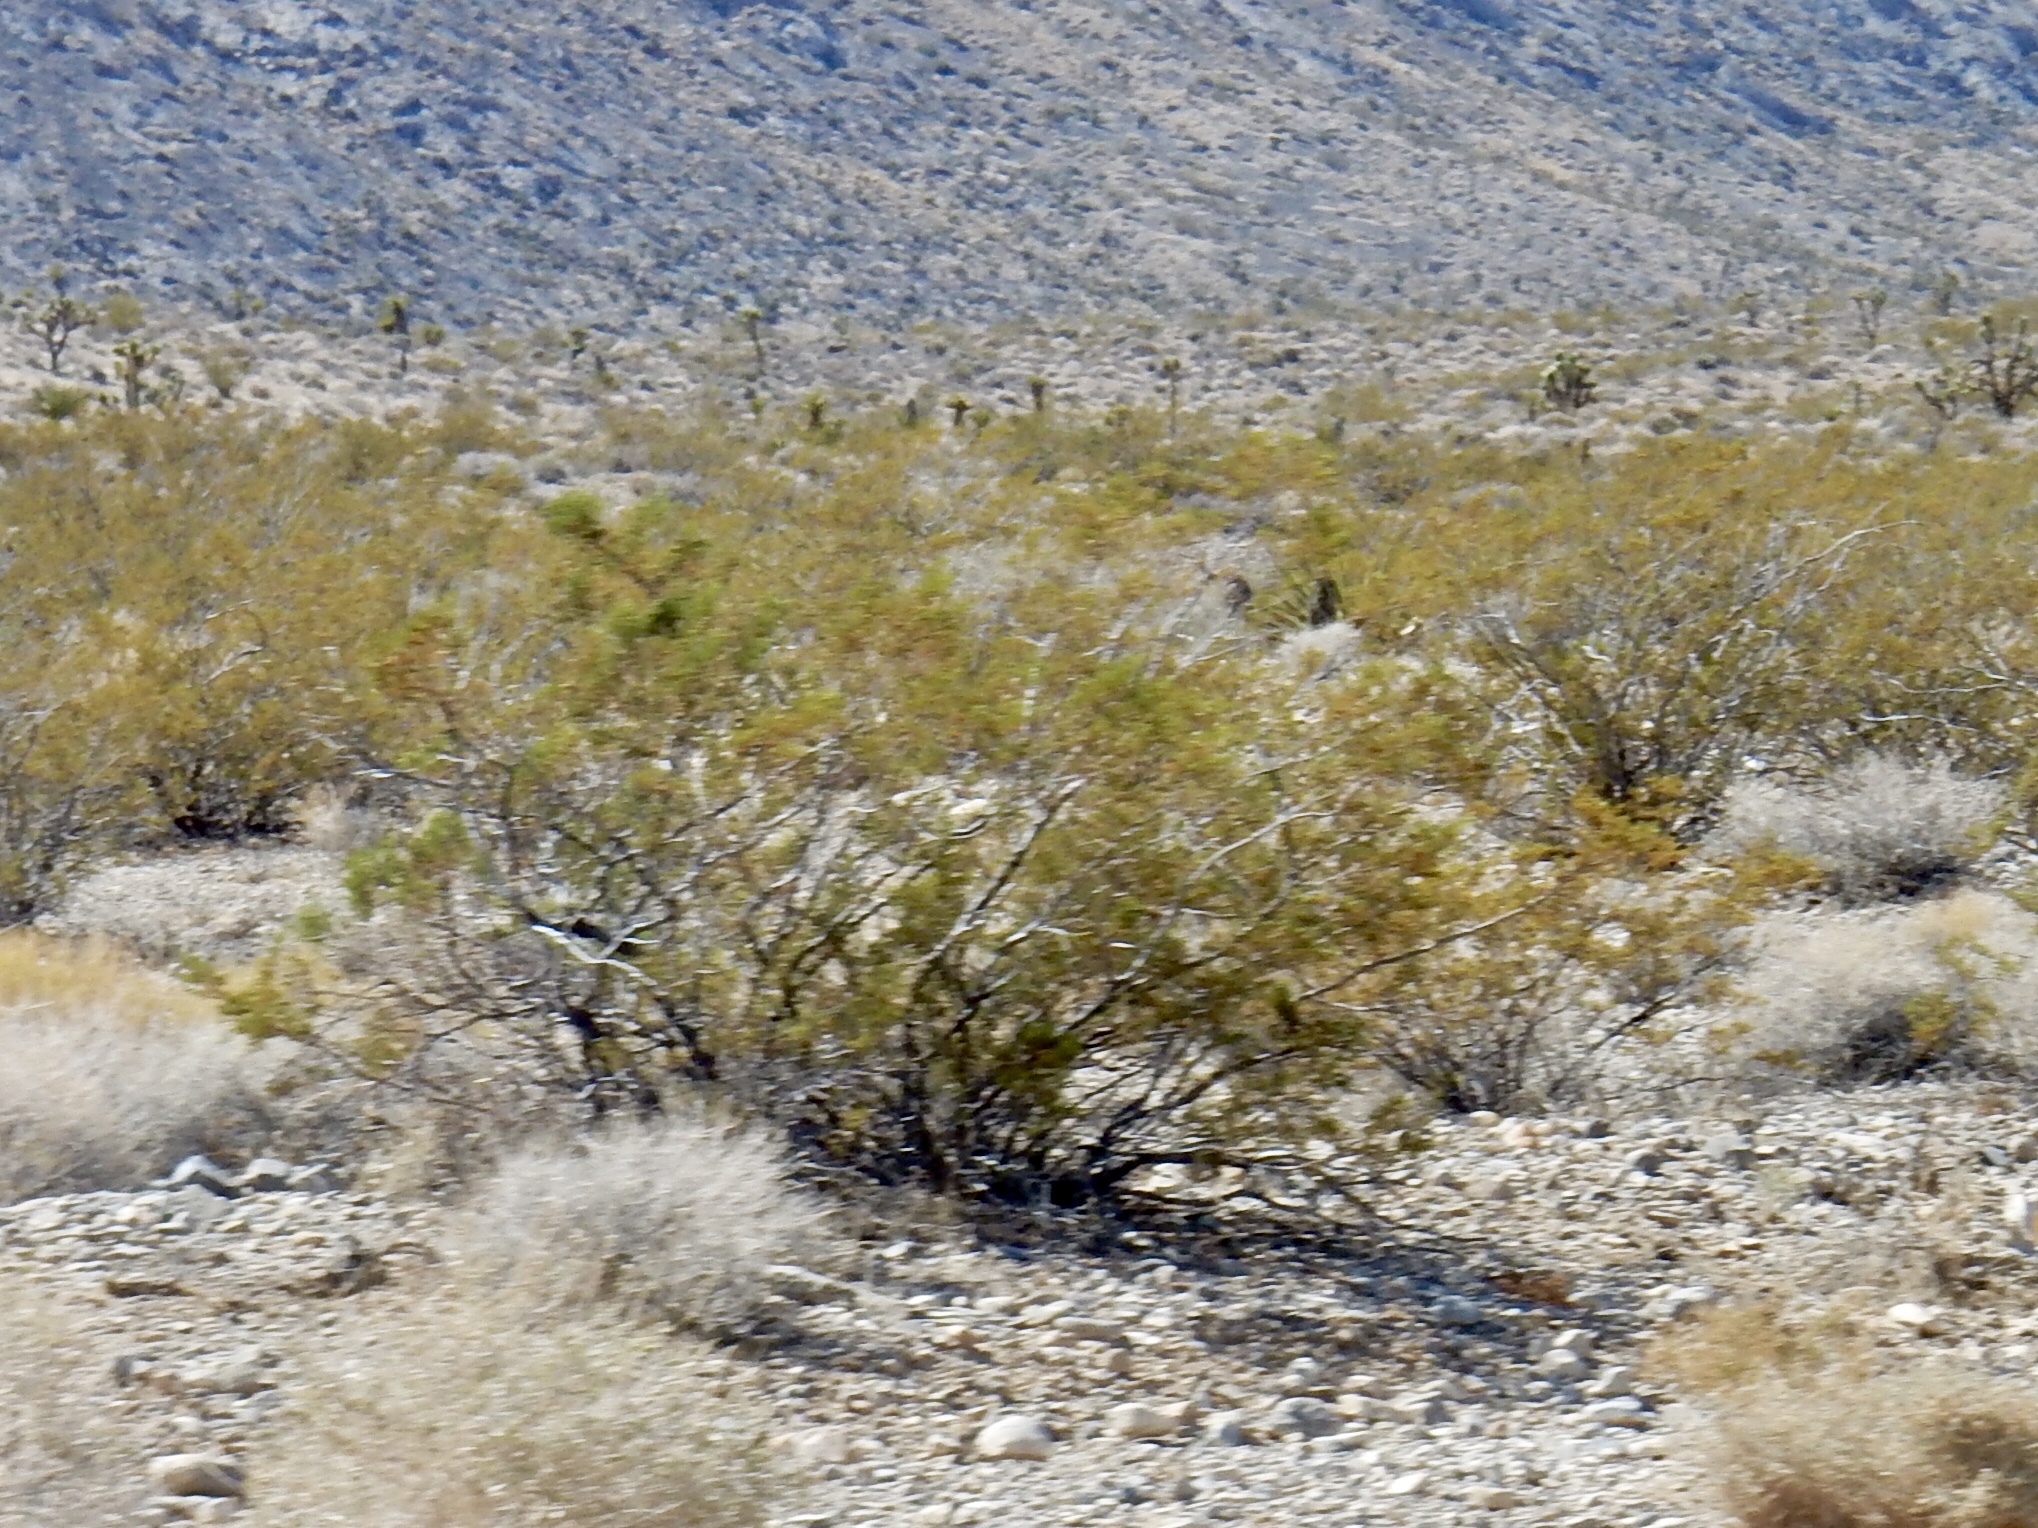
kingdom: Plantae
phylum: Tracheophyta
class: Magnoliopsida
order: Zygophyllales
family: Zygophyllaceae
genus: Larrea
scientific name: Larrea tridentata
